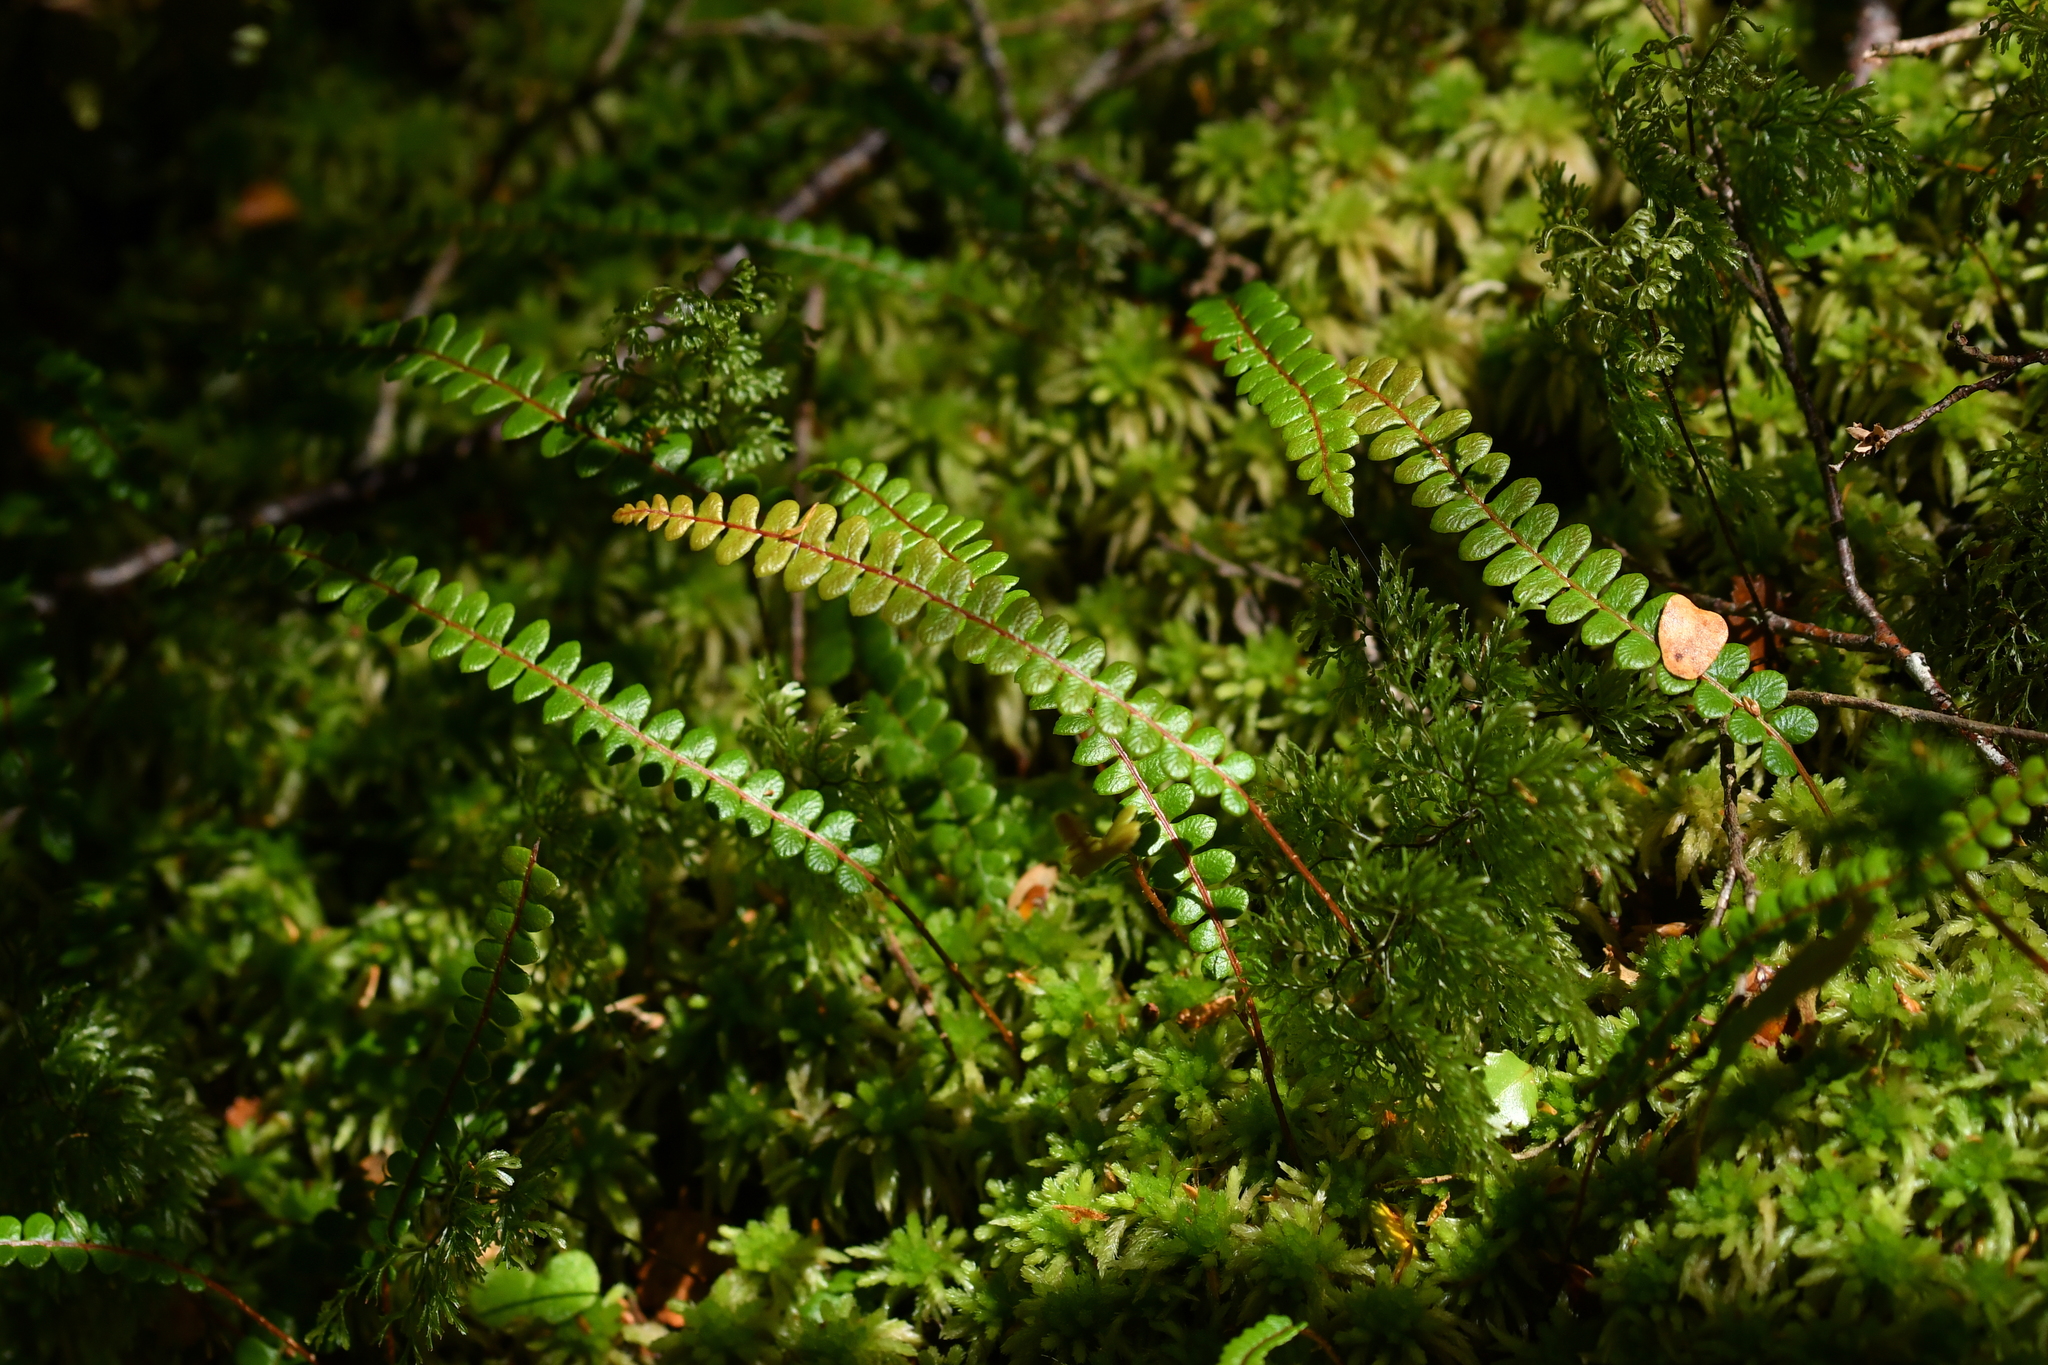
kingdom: Plantae
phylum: Tracheophyta
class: Polypodiopsida
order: Polypodiales
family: Blechnaceae
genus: Austroblechnum
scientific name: Austroblechnum penna-marina
